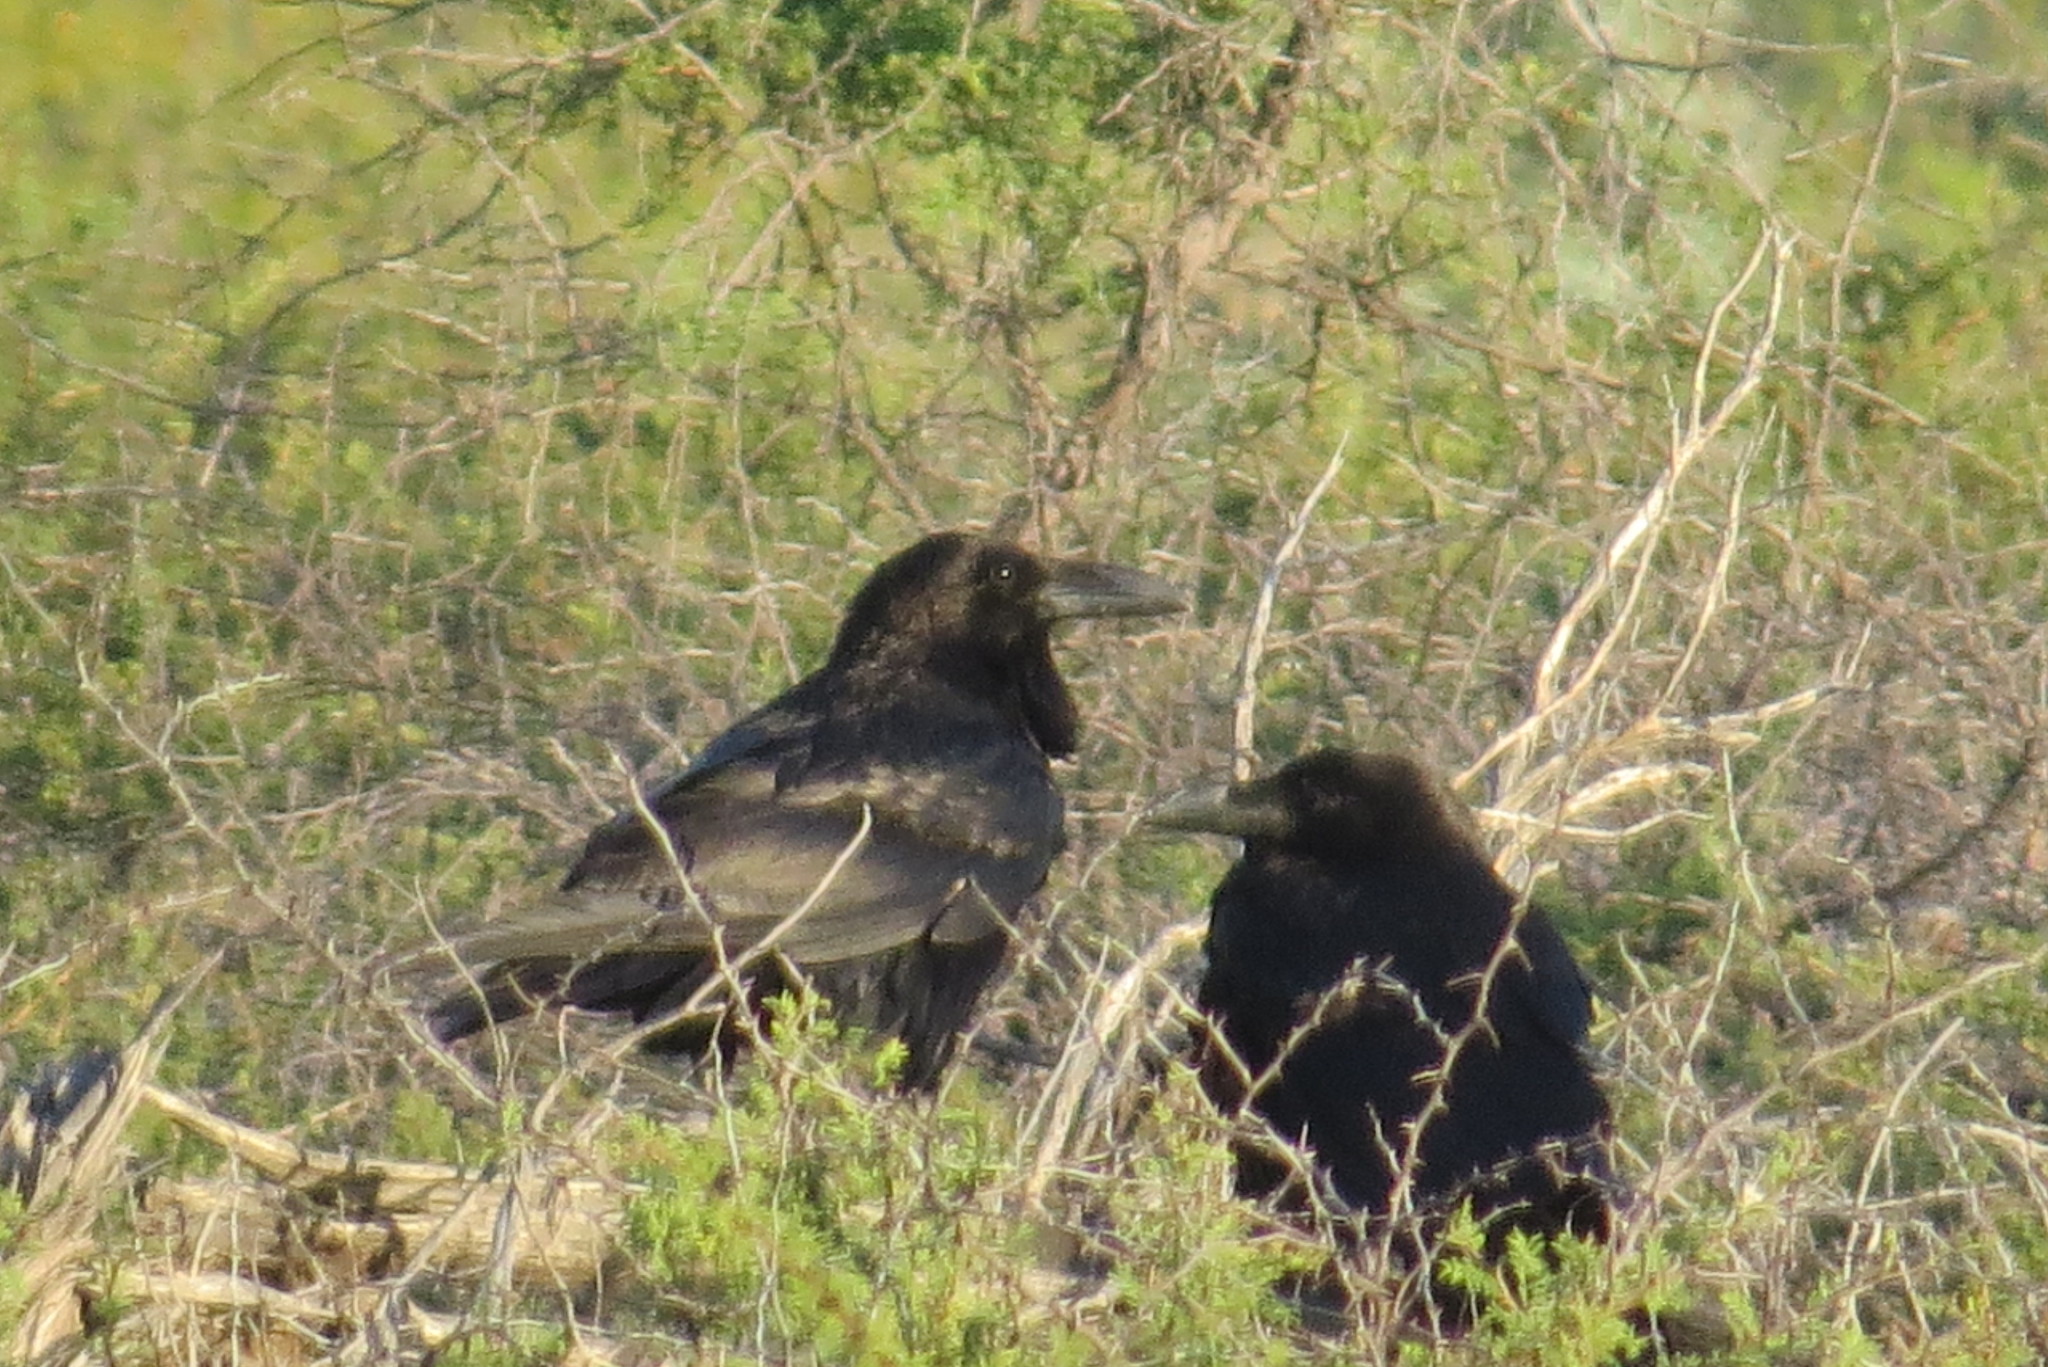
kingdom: Animalia
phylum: Chordata
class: Aves
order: Passeriformes
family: Corvidae
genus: Corvus
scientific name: Corvus corax
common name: Common raven
